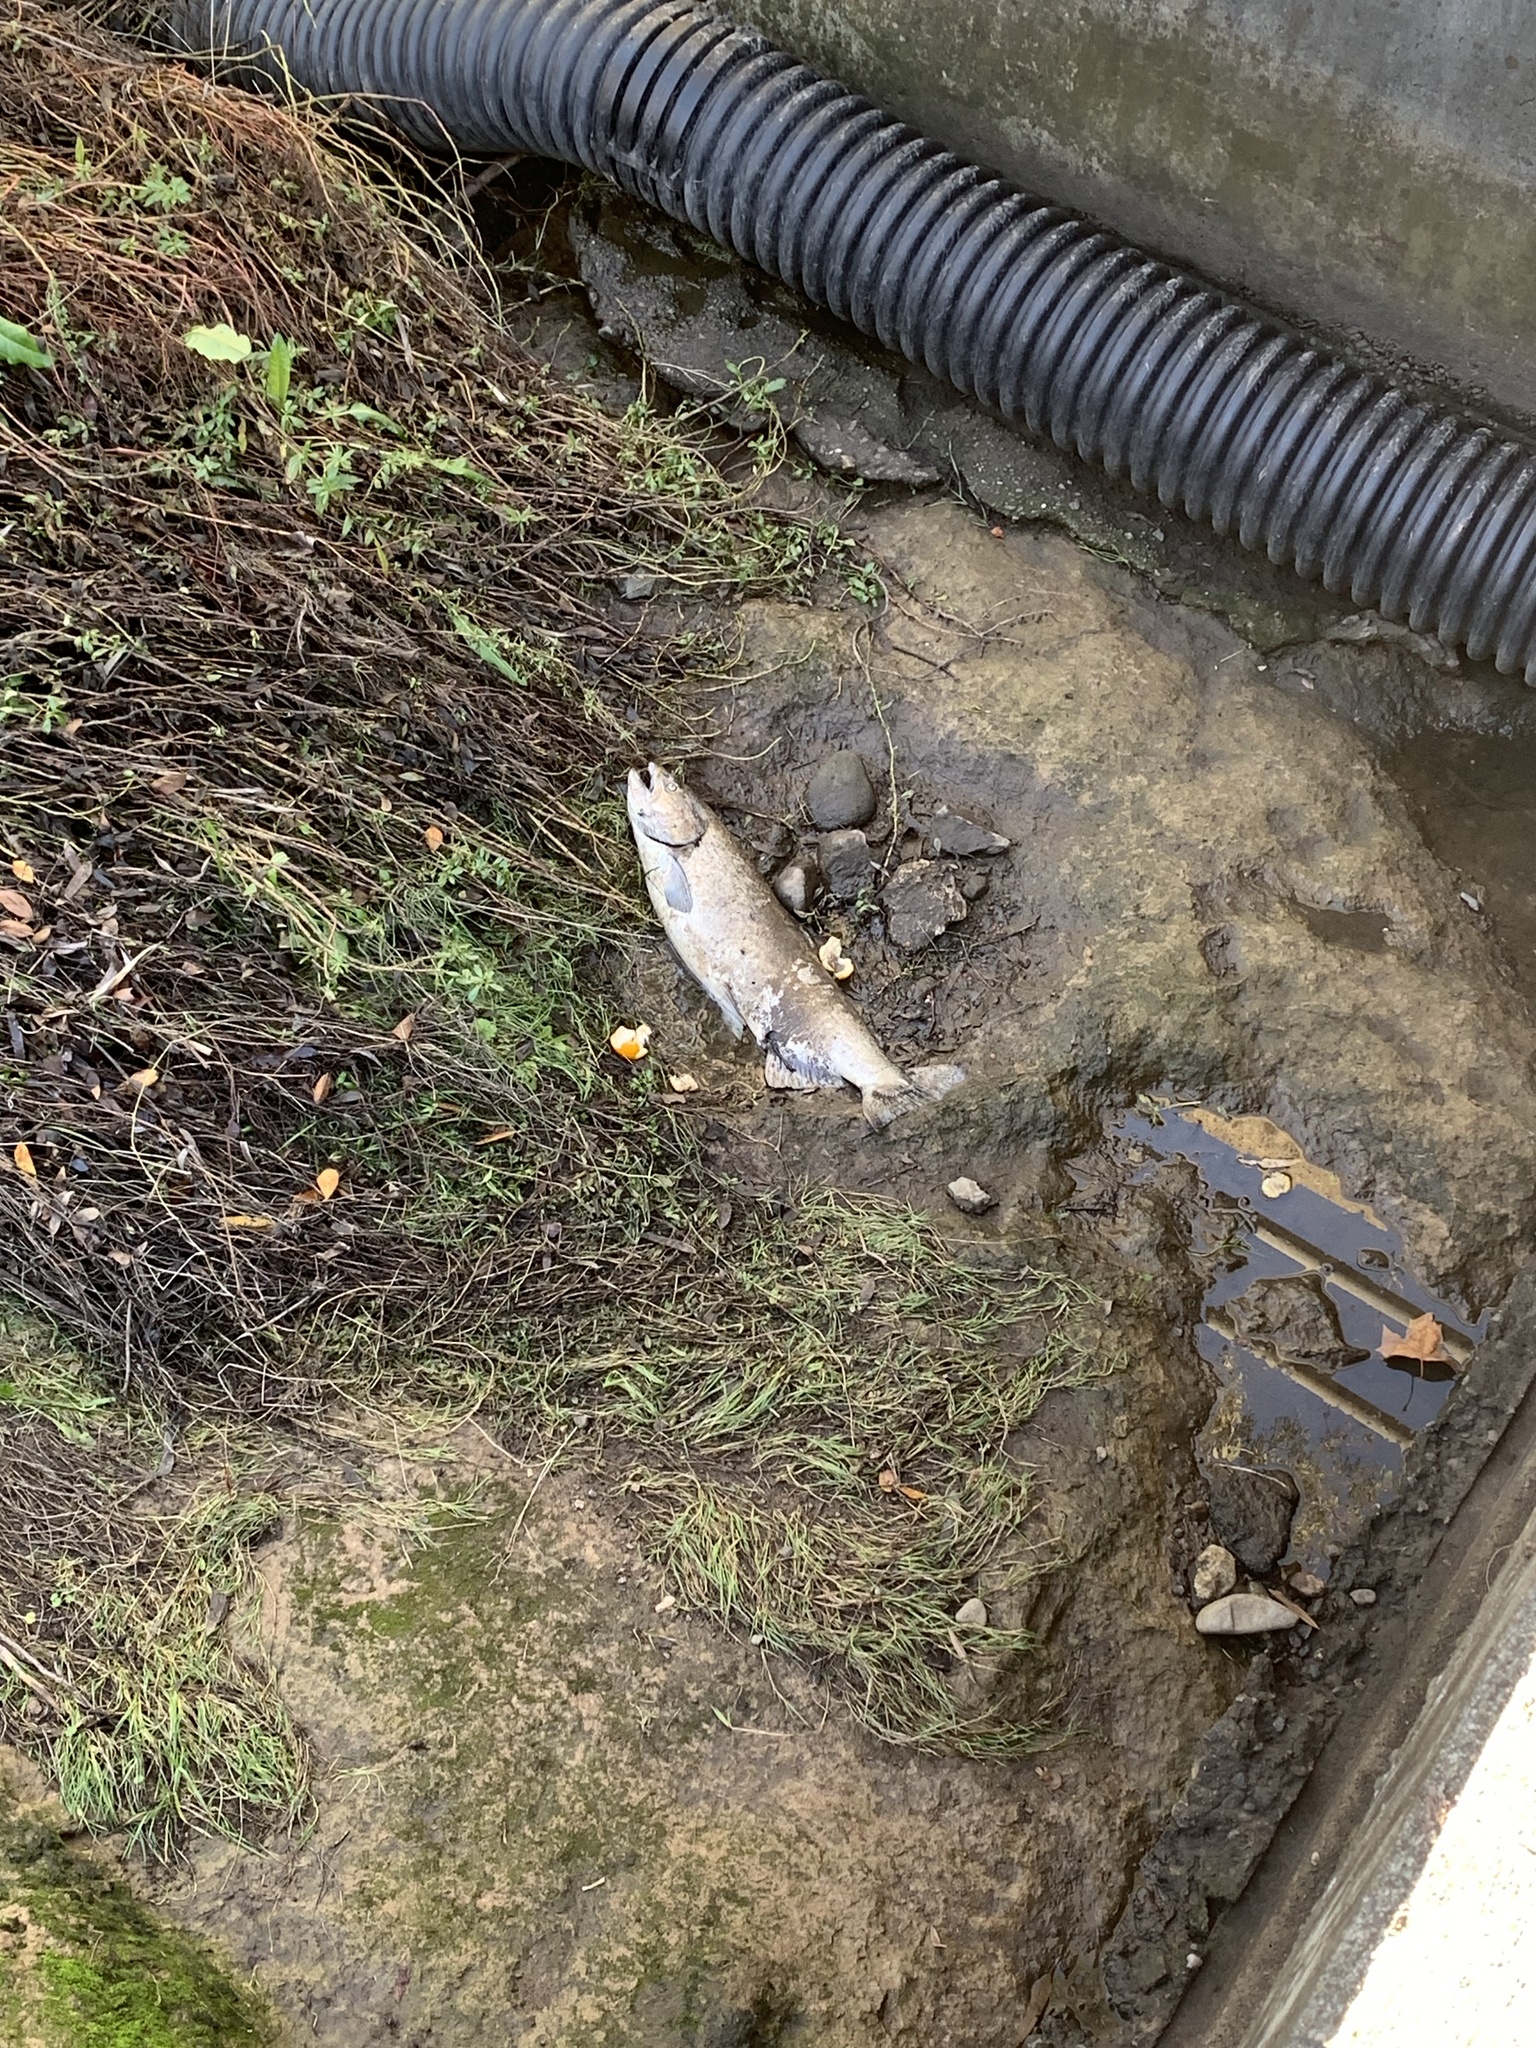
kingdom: Animalia
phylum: Chordata
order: Salmoniformes
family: Salmonidae
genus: Oncorhynchus
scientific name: Oncorhynchus tshawytscha
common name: Chinook salmon
